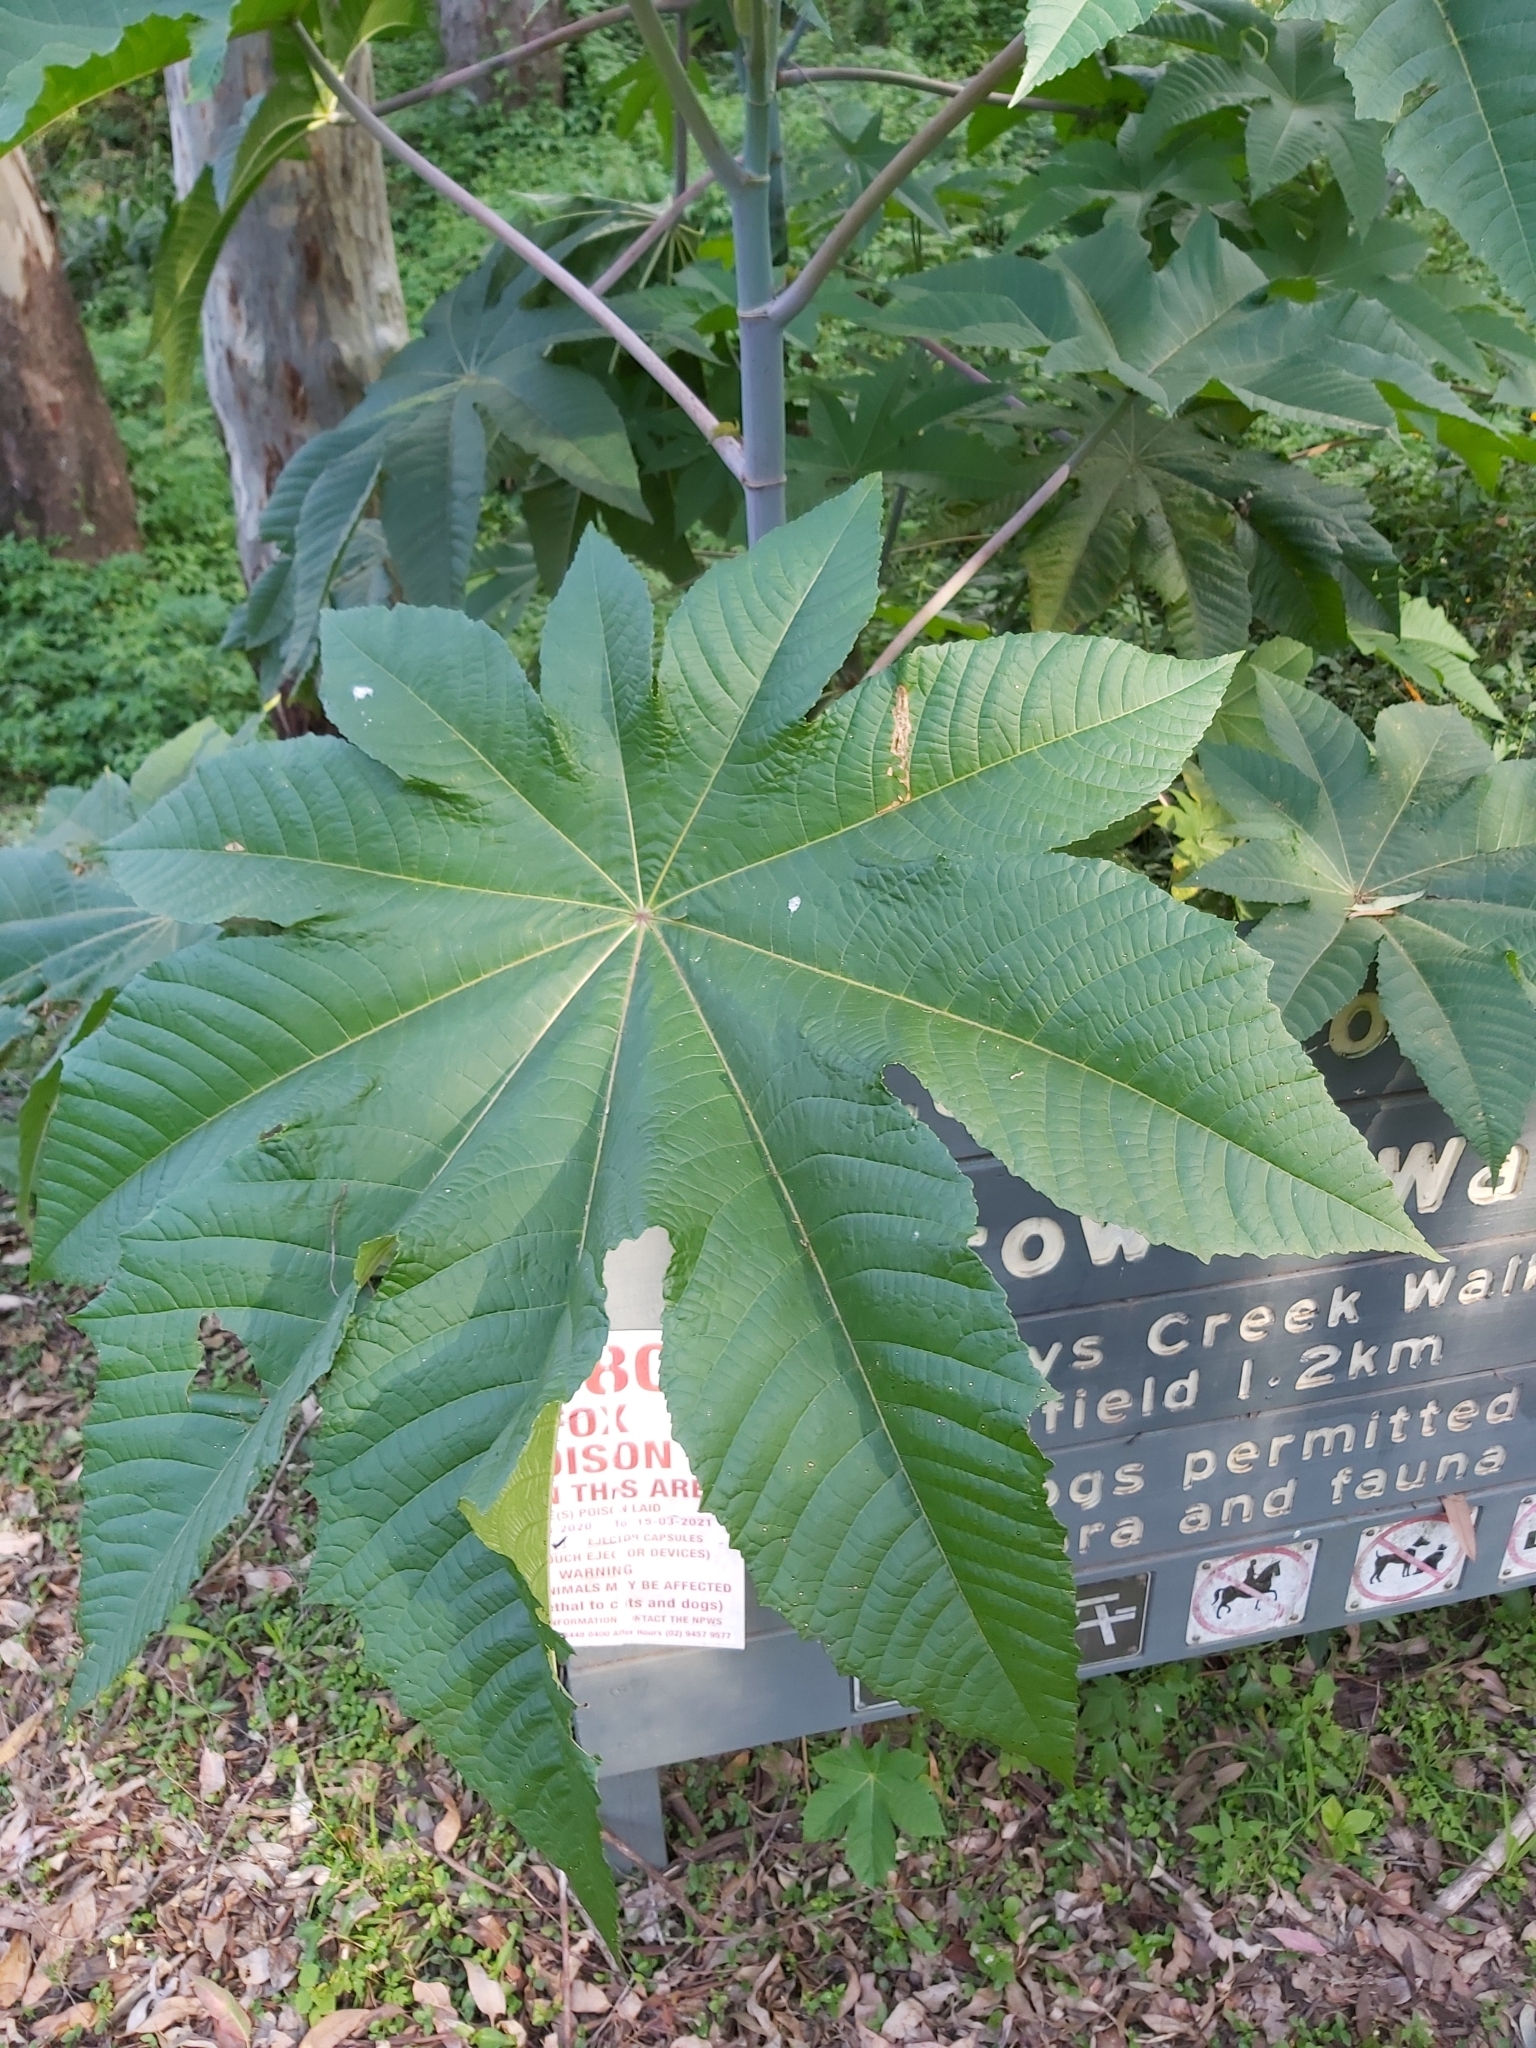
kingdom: Plantae
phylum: Tracheophyta
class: Magnoliopsida
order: Malpighiales
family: Euphorbiaceae
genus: Ricinus
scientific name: Ricinus communis
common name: Castor-oil-plant
